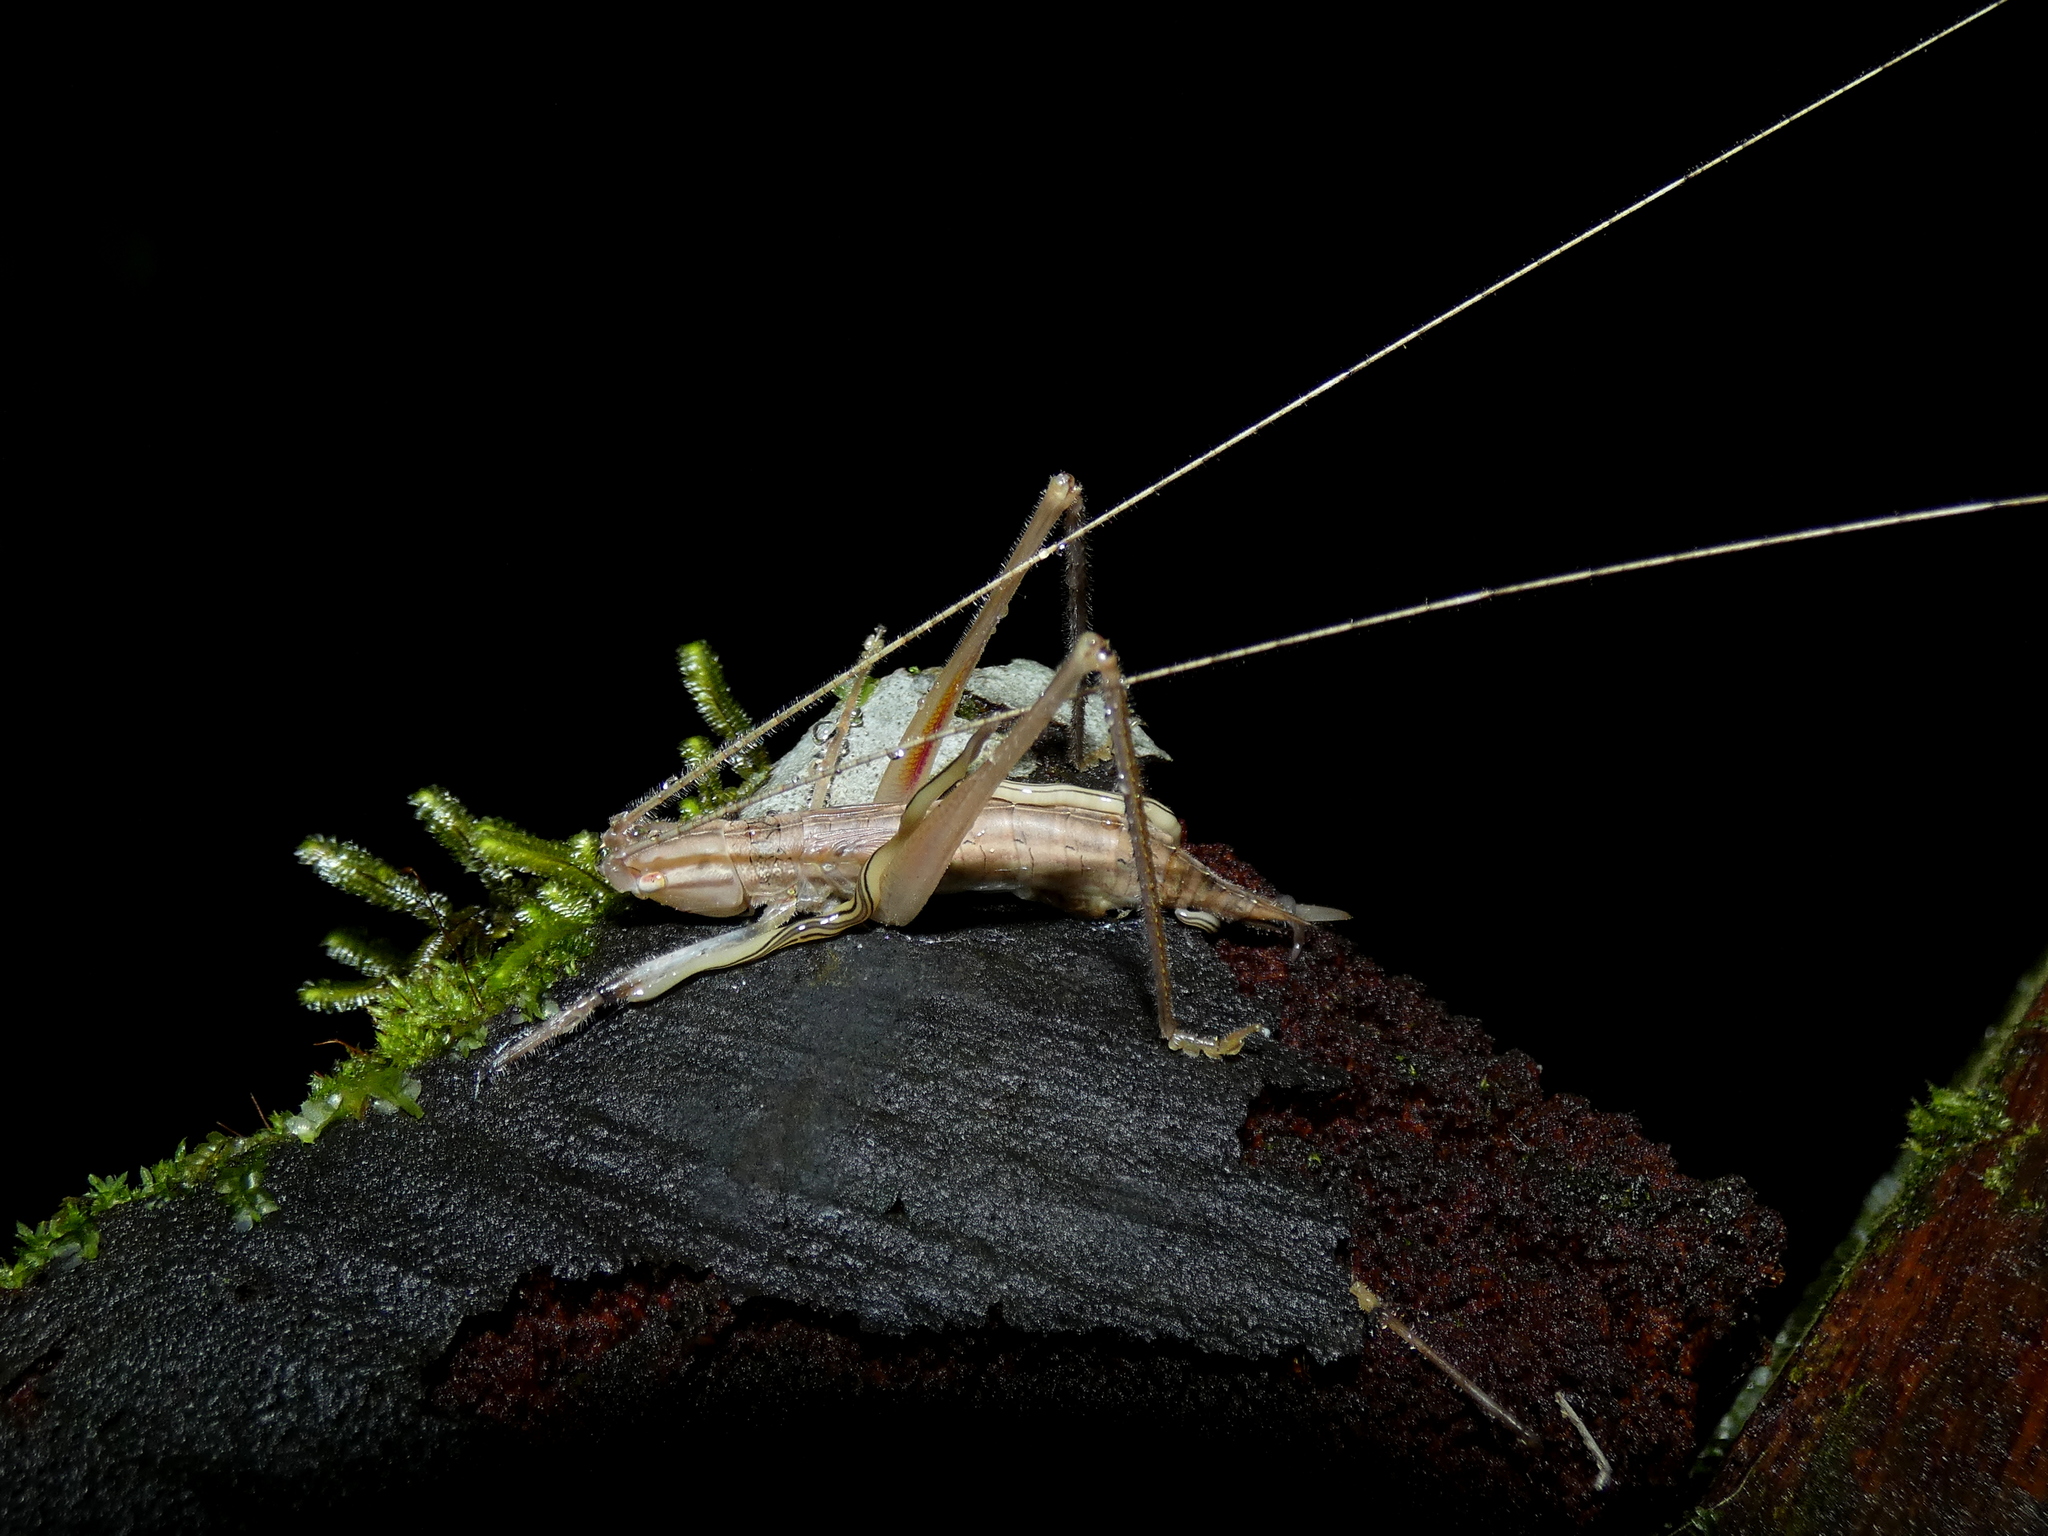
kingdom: Animalia
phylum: Platyhelminthes
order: Tricladida
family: Geoplanidae
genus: Anisorhynchodemus
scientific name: Anisorhynchodemus nematoides
